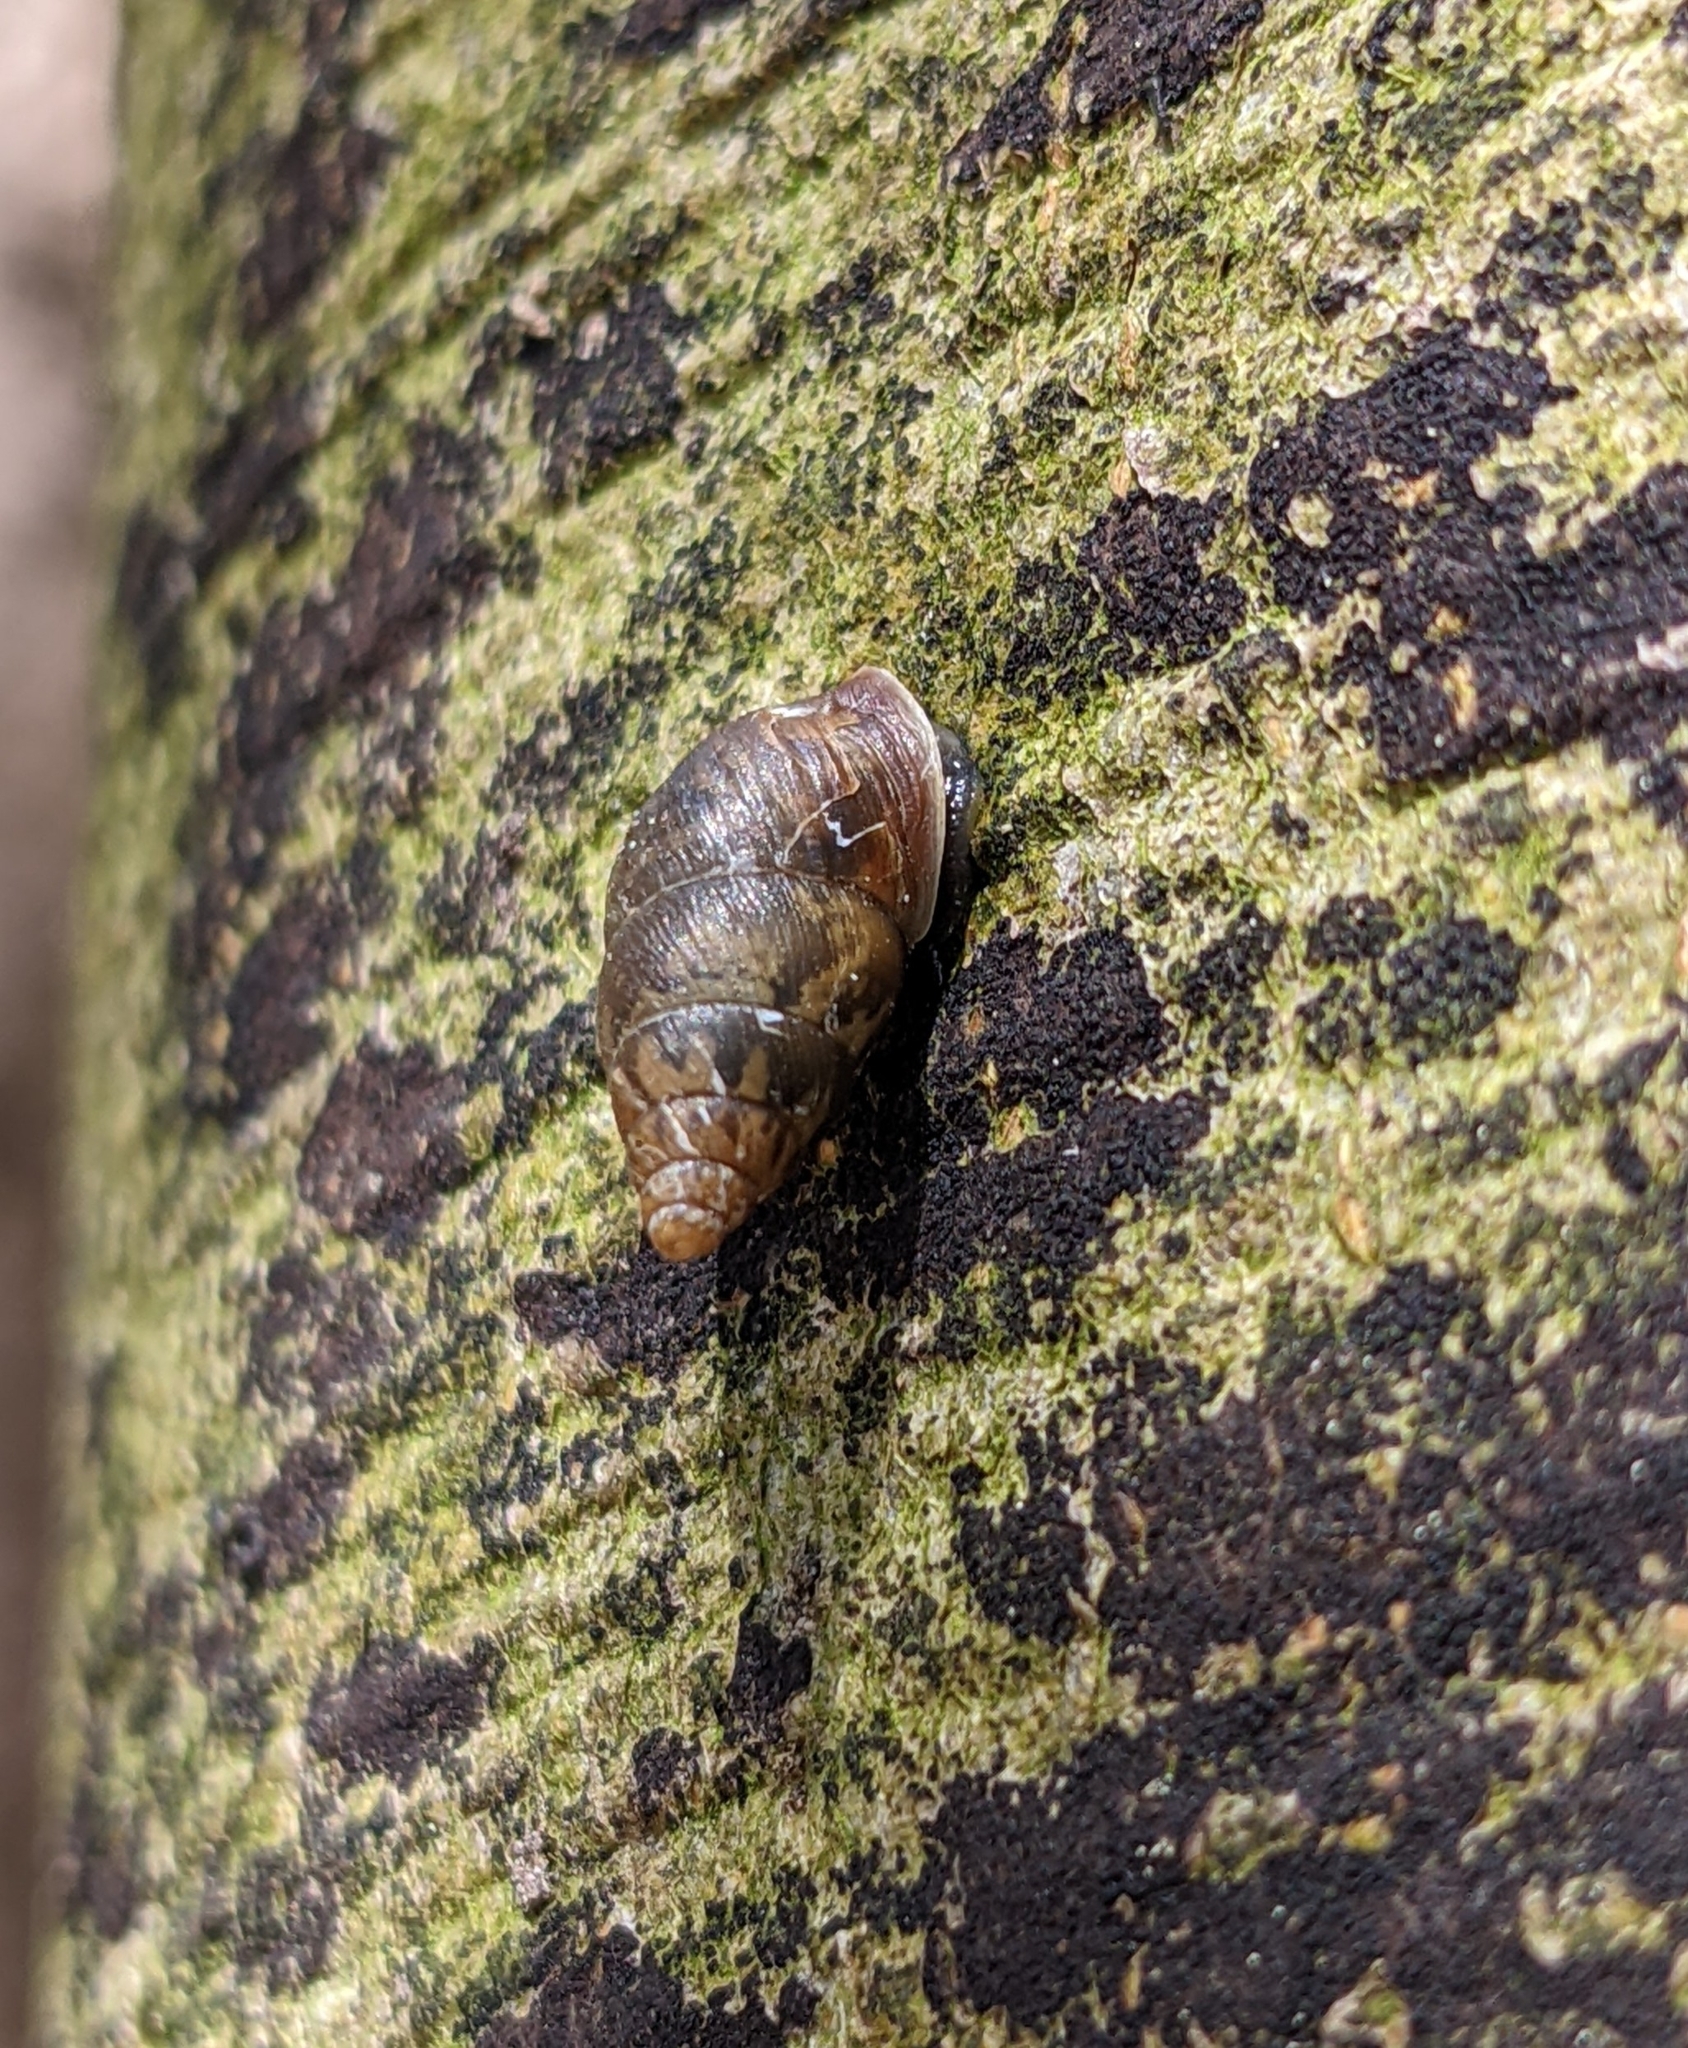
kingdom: Animalia
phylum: Mollusca
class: Gastropoda
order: Stylommatophora
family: Enidae
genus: Ena
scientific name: Ena montana
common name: Mountain bulin
